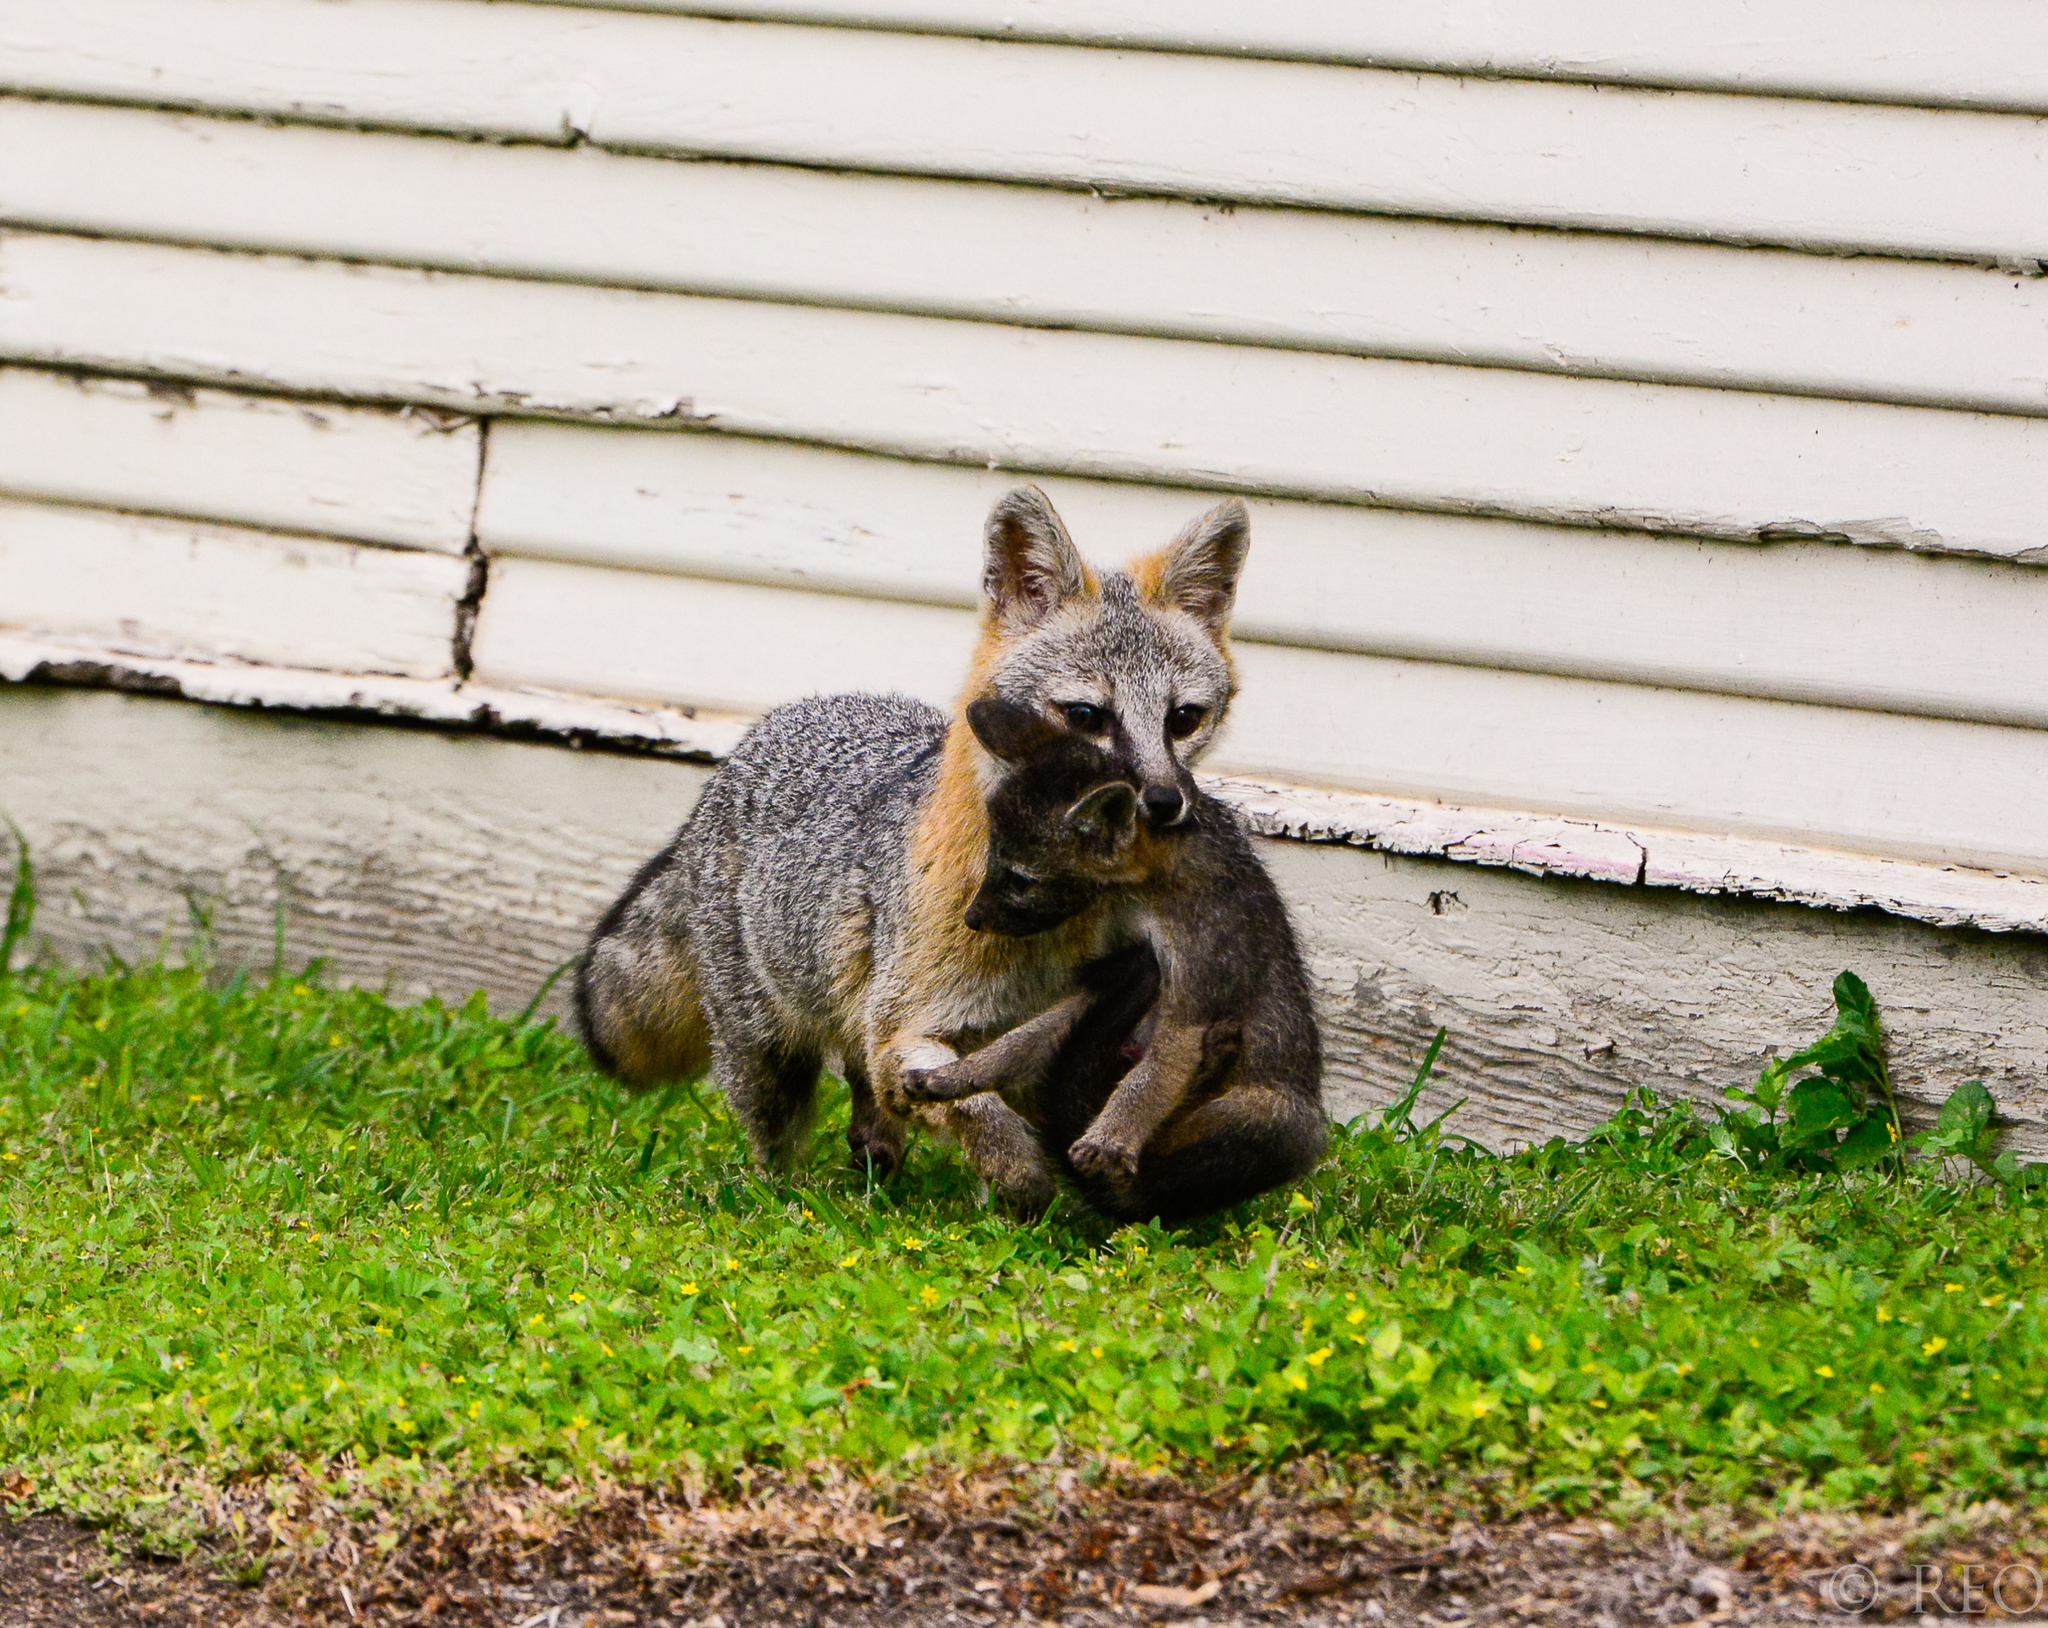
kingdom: Animalia
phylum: Chordata
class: Mammalia
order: Carnivora
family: Canidae
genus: Urocyon
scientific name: Urocyon cinereoargenteus
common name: Gray fox
